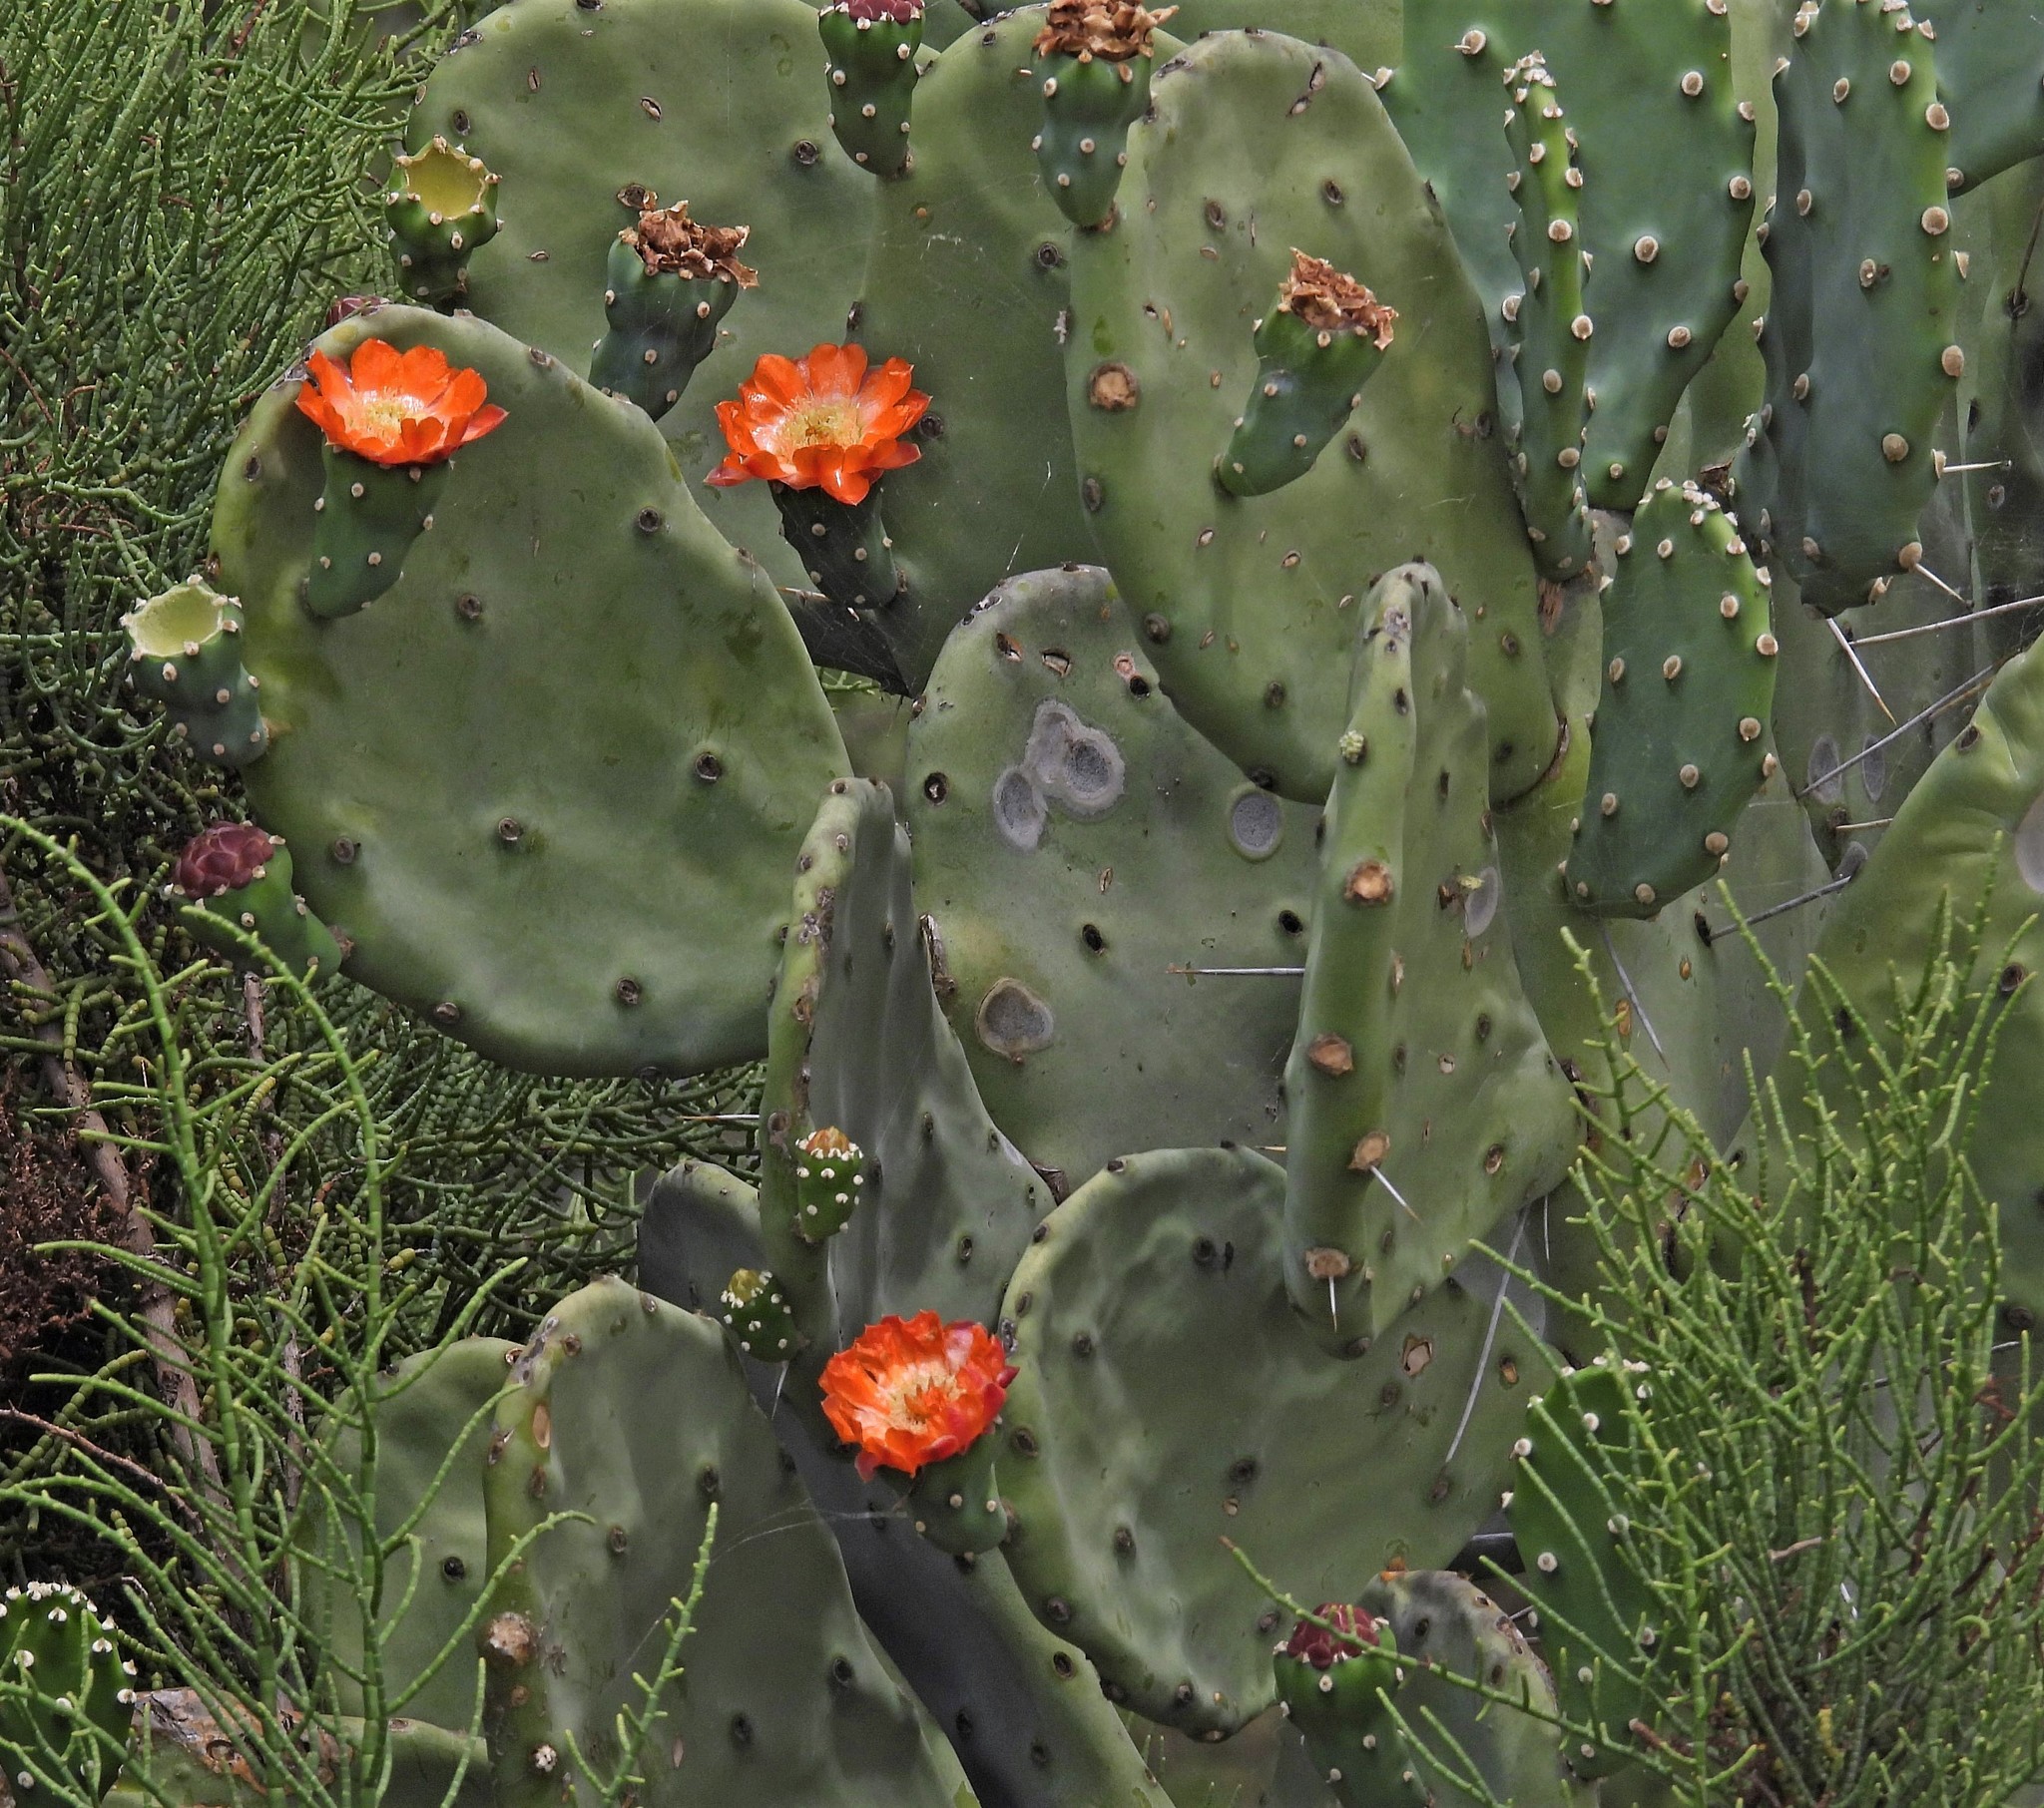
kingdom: Plantae
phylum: Tracheophyta
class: Magnoliopsida
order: Caryophyllales
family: Cactaceae
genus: Opuntia
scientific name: Opuntia quimilo
